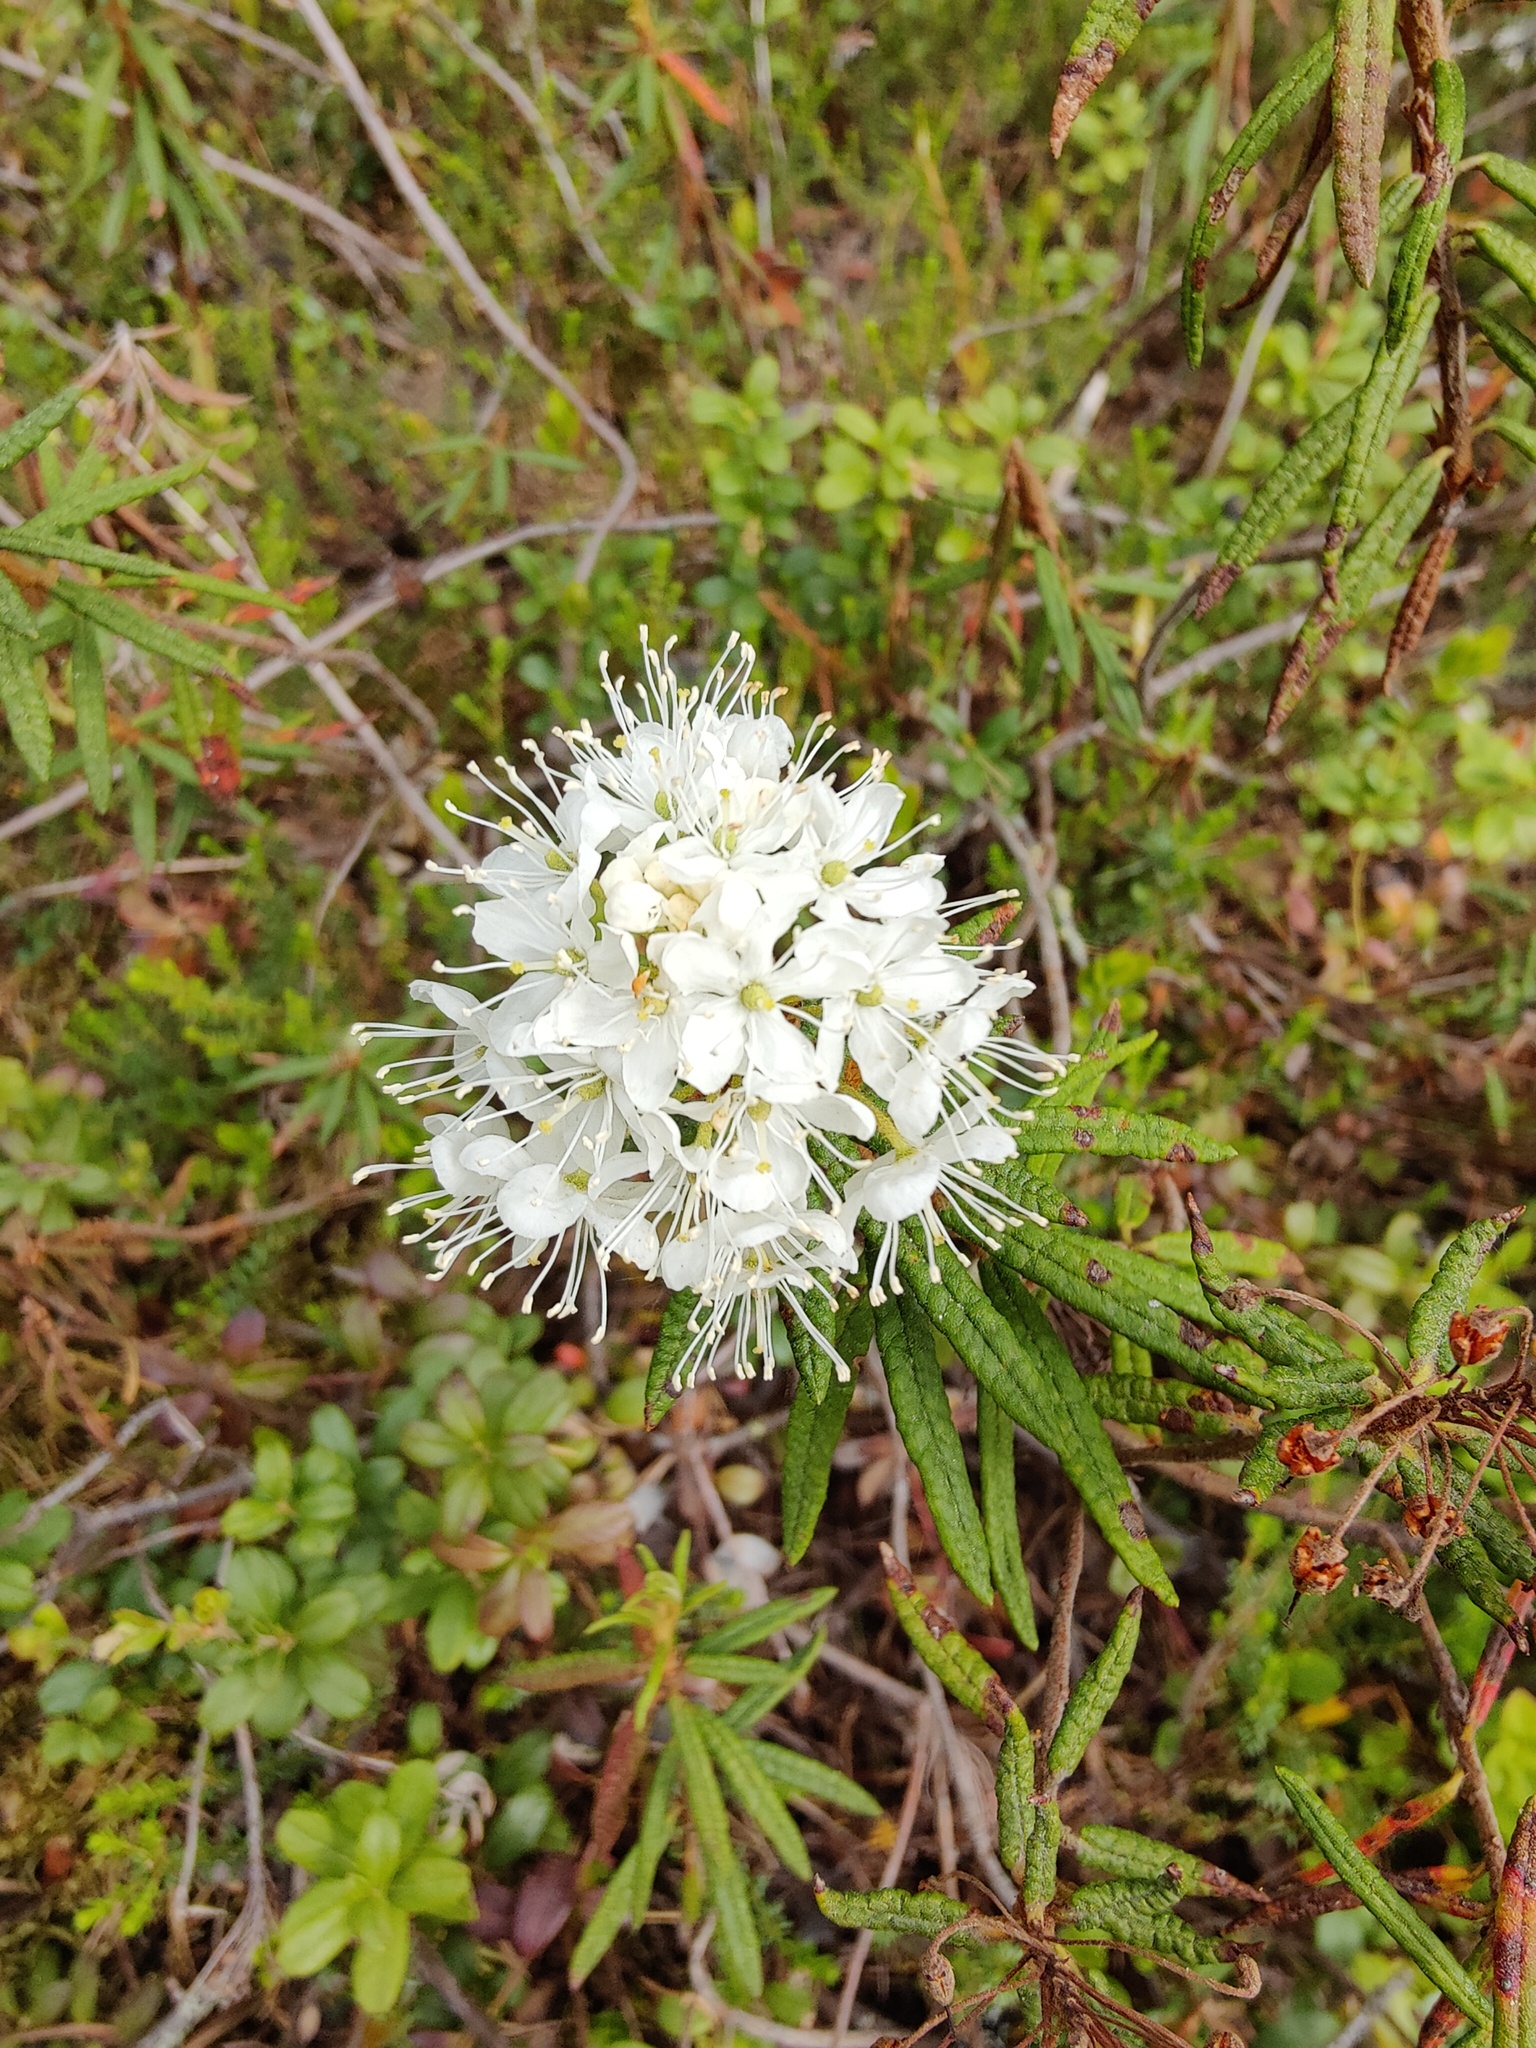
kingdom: Plantae
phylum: Tracheophyta
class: Magnoliopsida
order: Ericales
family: Ericaceae
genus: Rhododendron
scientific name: Rhododendron tomentosum
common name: Marsh labrador tea
